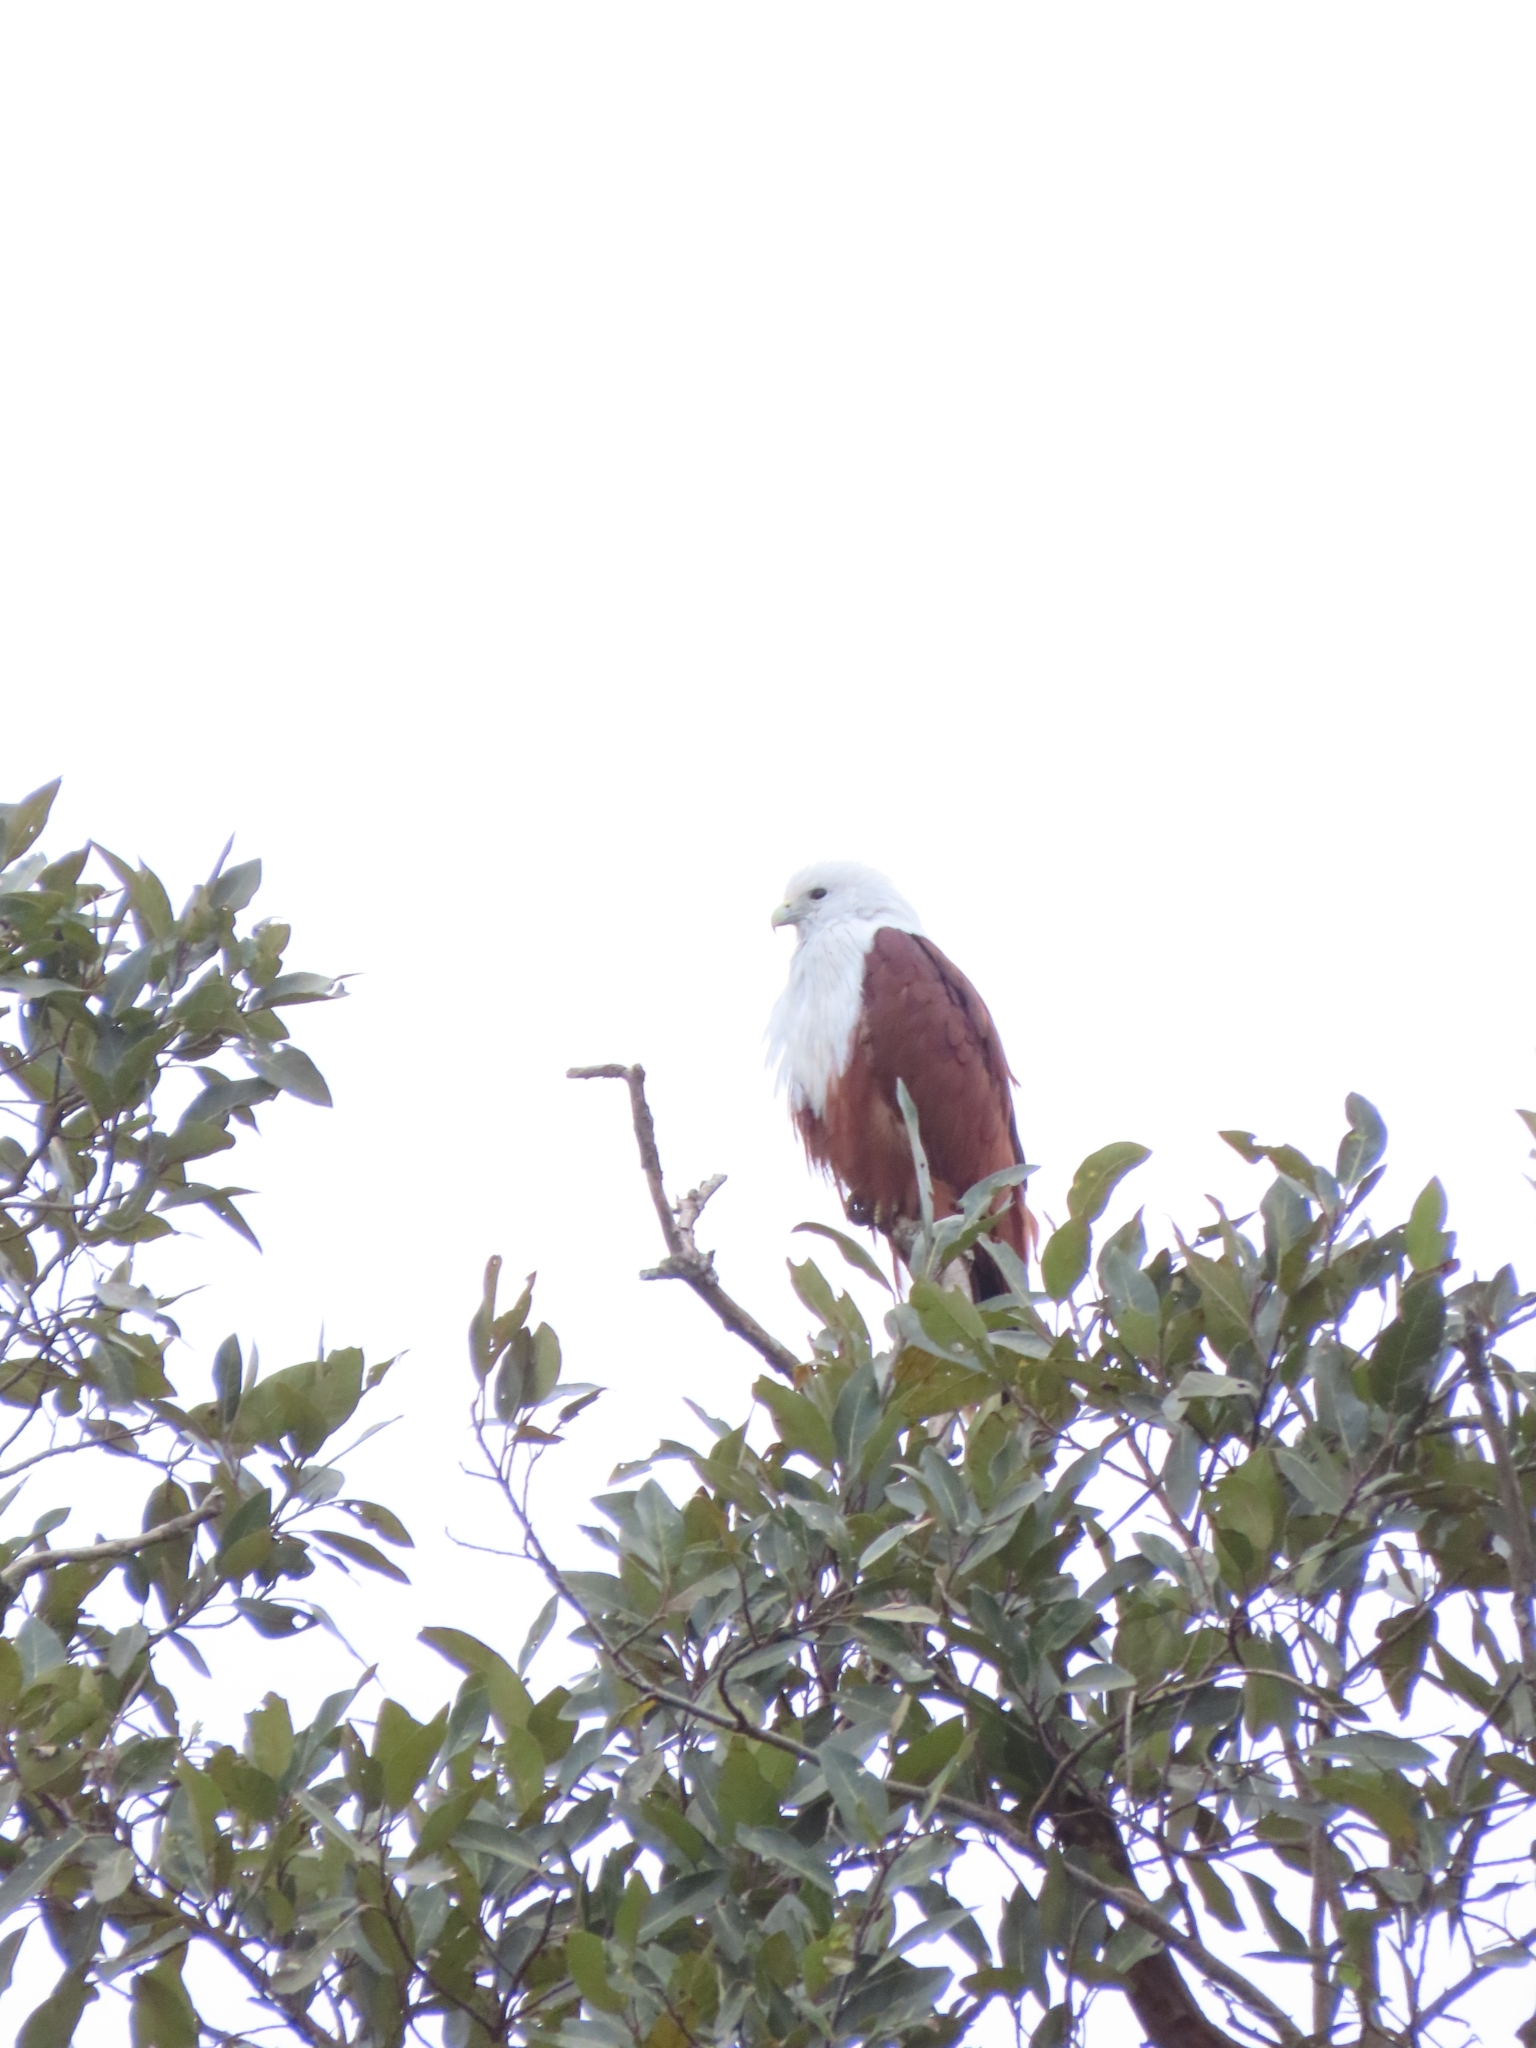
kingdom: Animalia
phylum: Chordata
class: Aves
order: Accipitriformes
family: Accipitridae
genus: Haliastur
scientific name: Haliastur indus
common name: Brahminy kite
